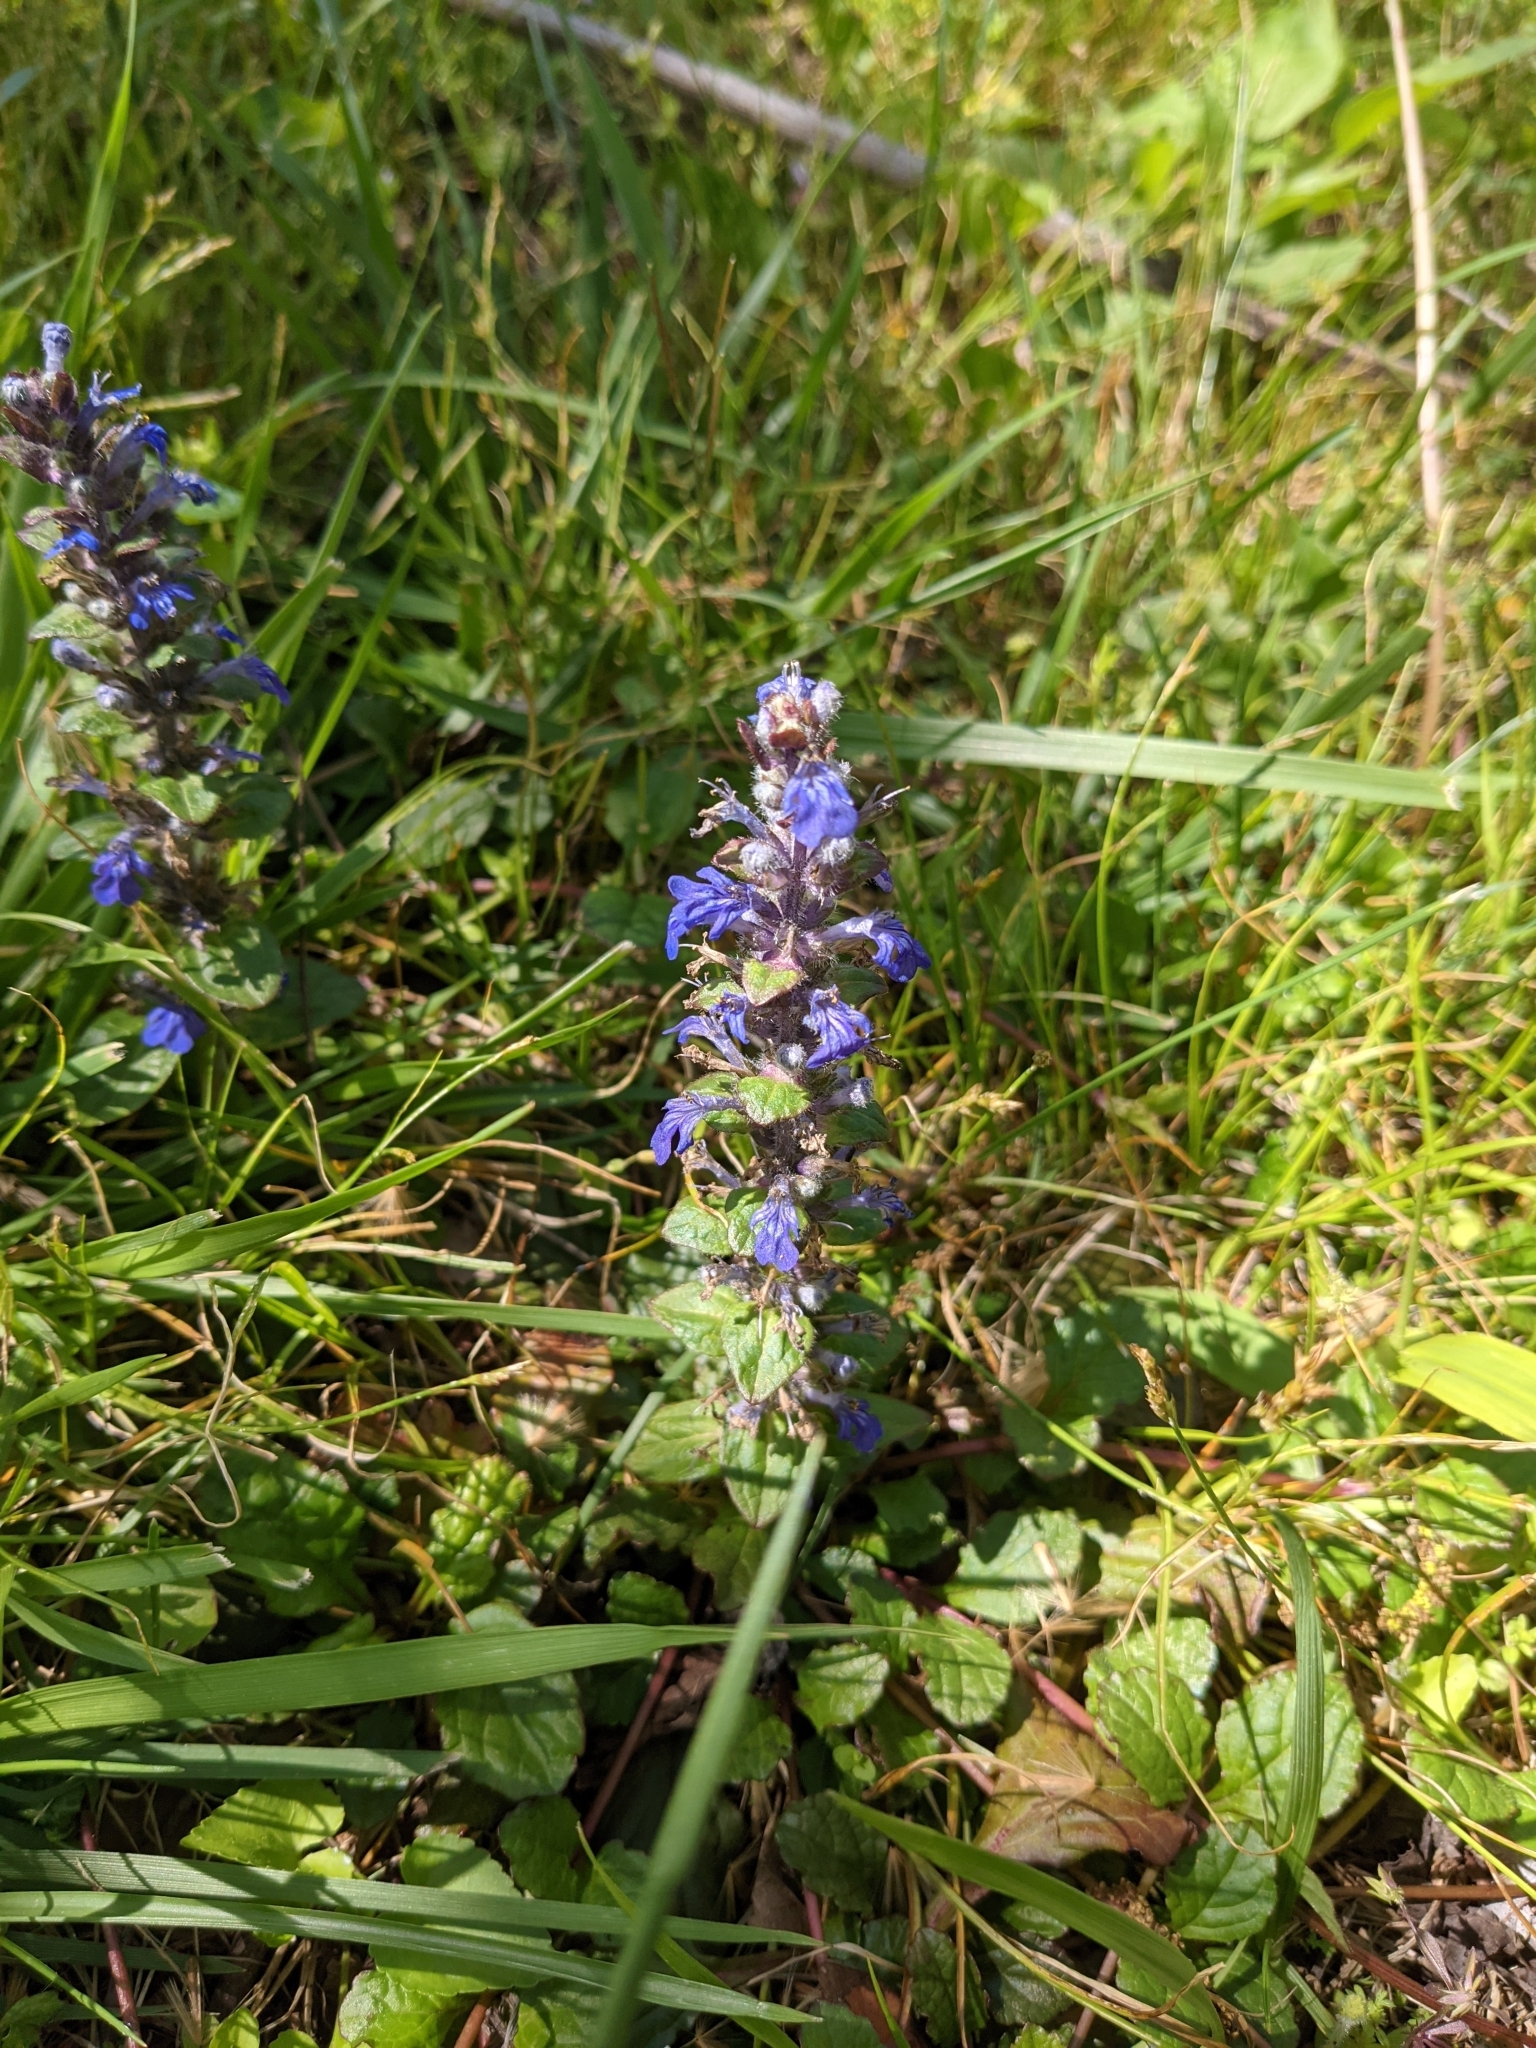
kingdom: Plantae
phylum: Tracheophyta
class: Magnoliopsida
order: Lamiales
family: Lamiaceae
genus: Ajuga
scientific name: Ajuga reptans
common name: Bugle
